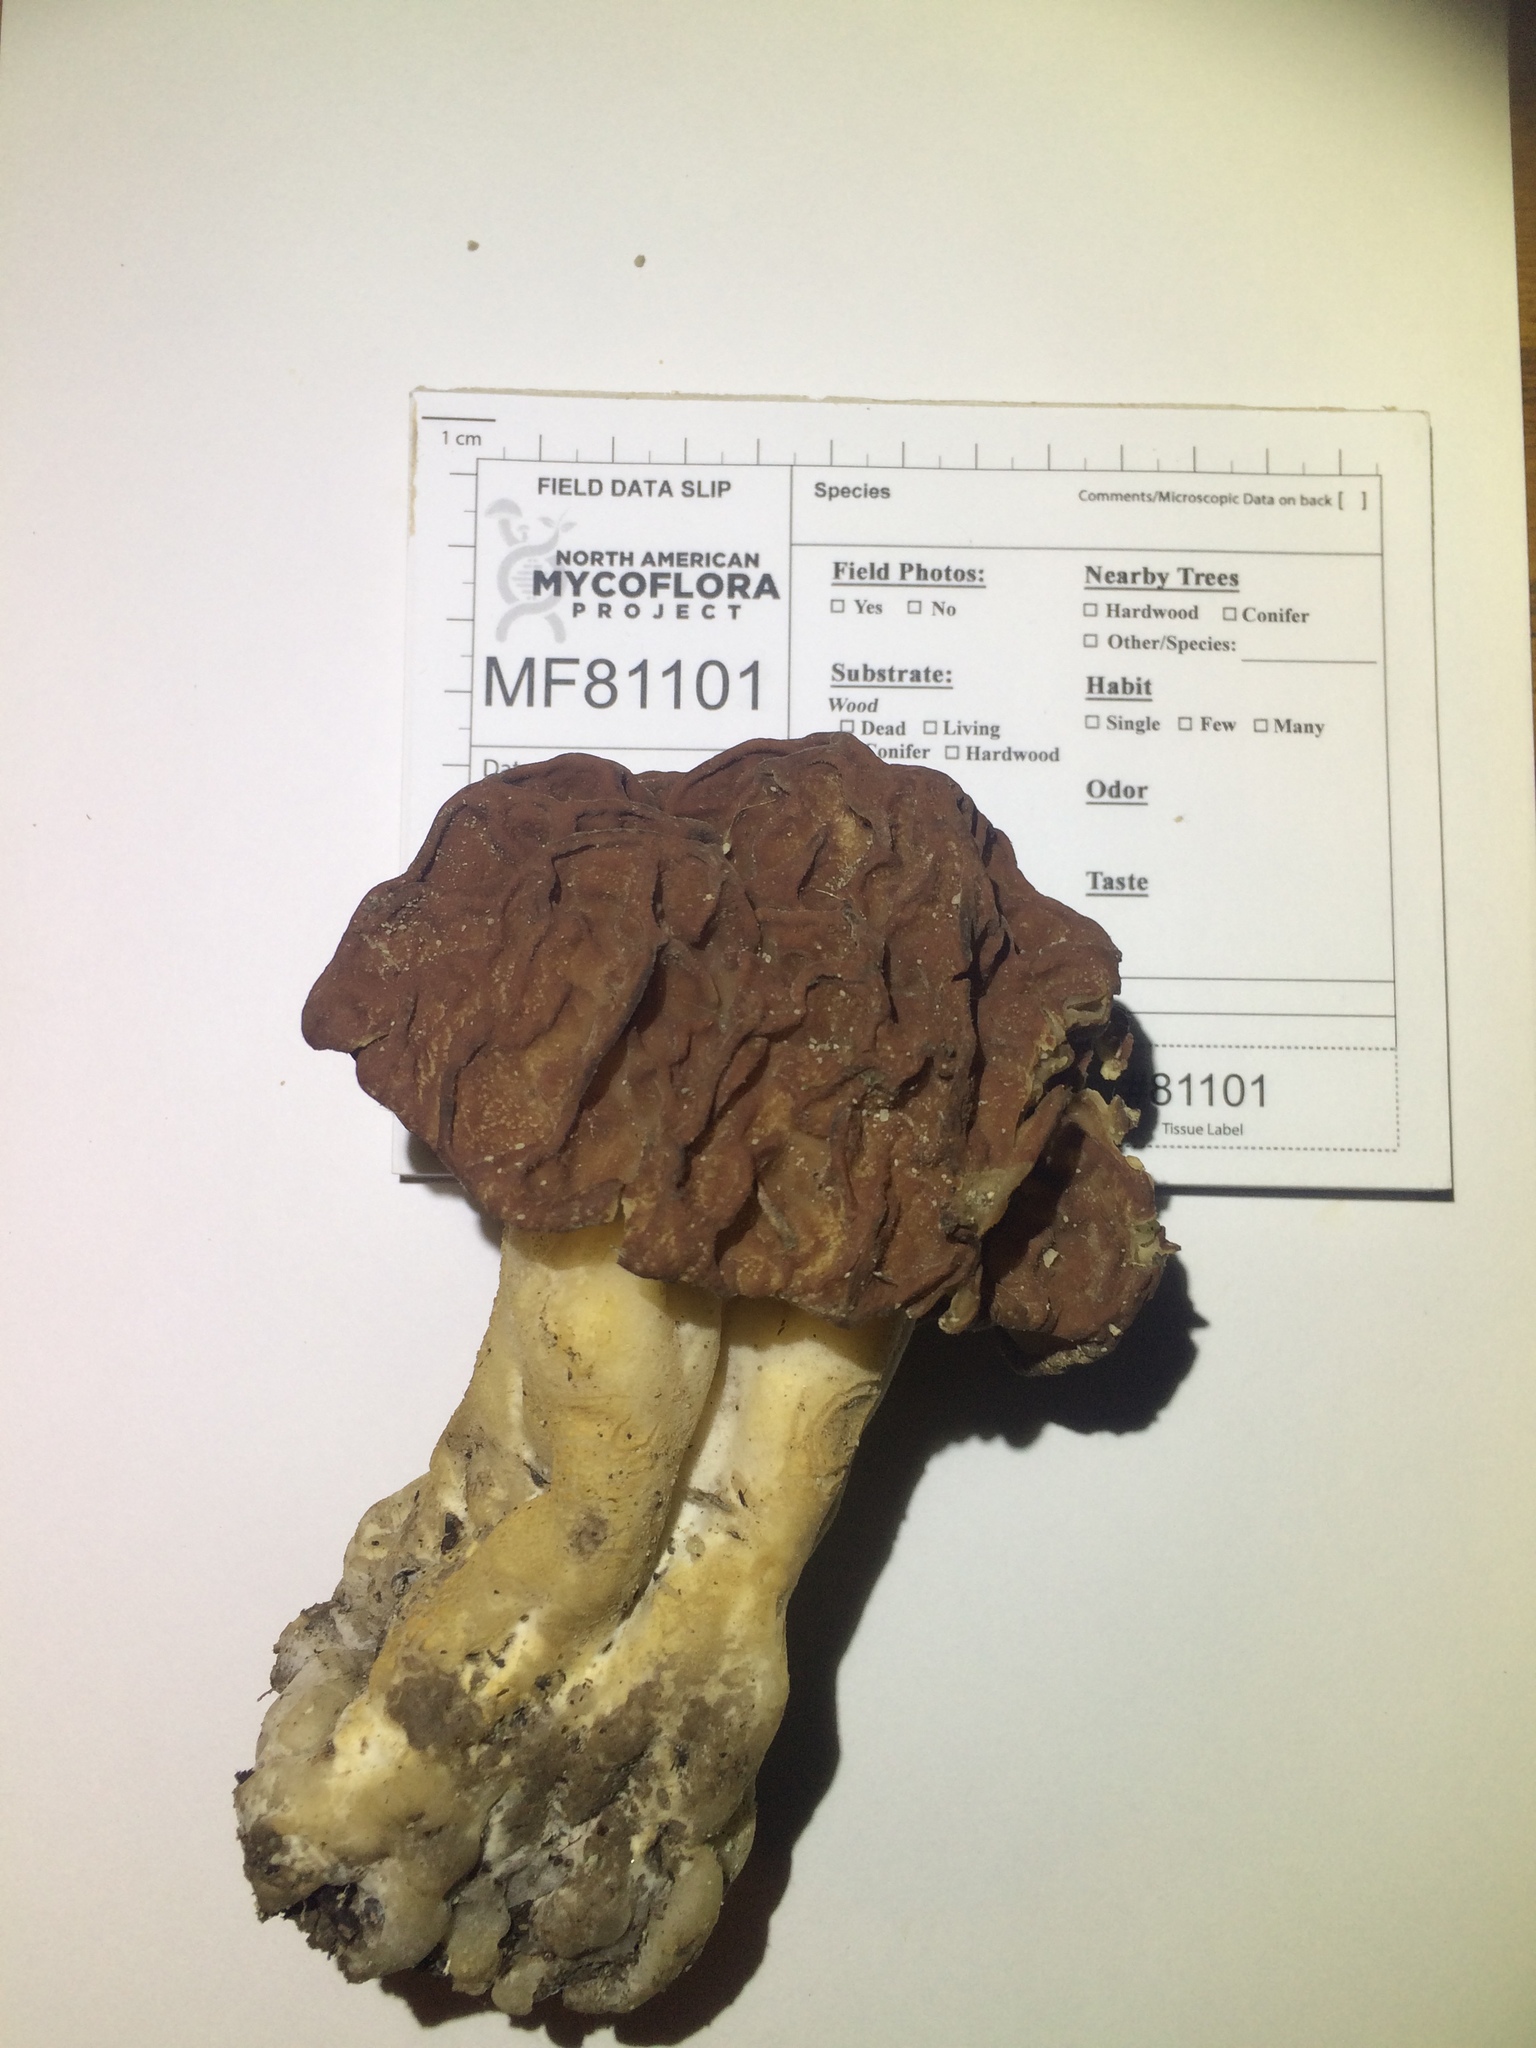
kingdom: Fungi
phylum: Ascomycota
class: Pezizomycetes
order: Pezizales
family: Discinaceae
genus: Discina
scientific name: Discina caroliniana
